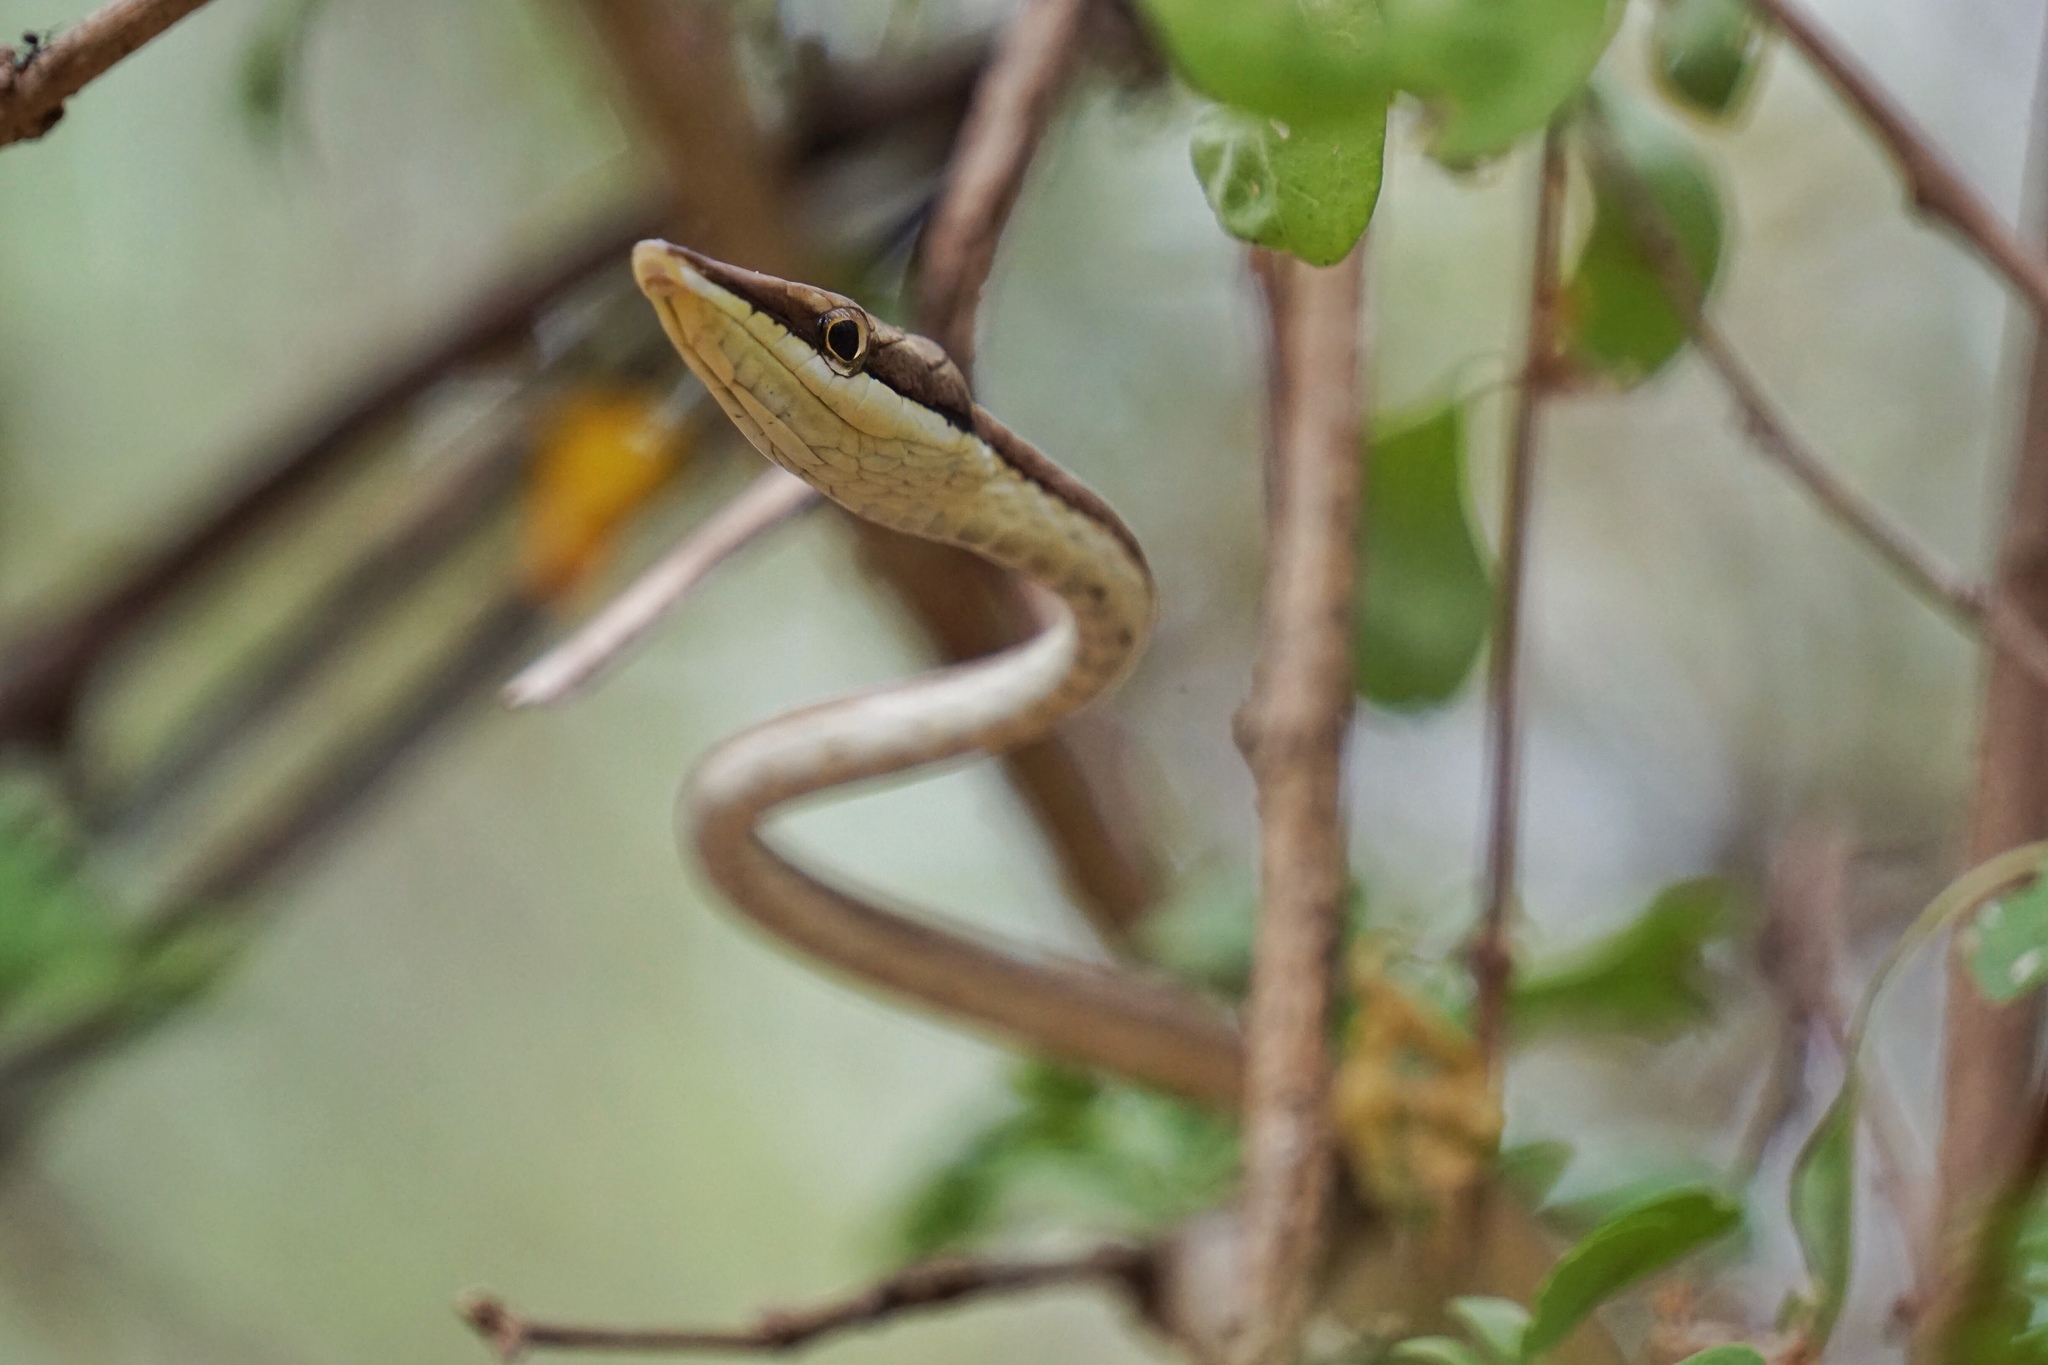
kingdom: Animalia
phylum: Chordata
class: Squamata
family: Colubridae
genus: Oxybelis
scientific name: Oxybelis microphthalmus
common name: Thrornscrub vine snake
